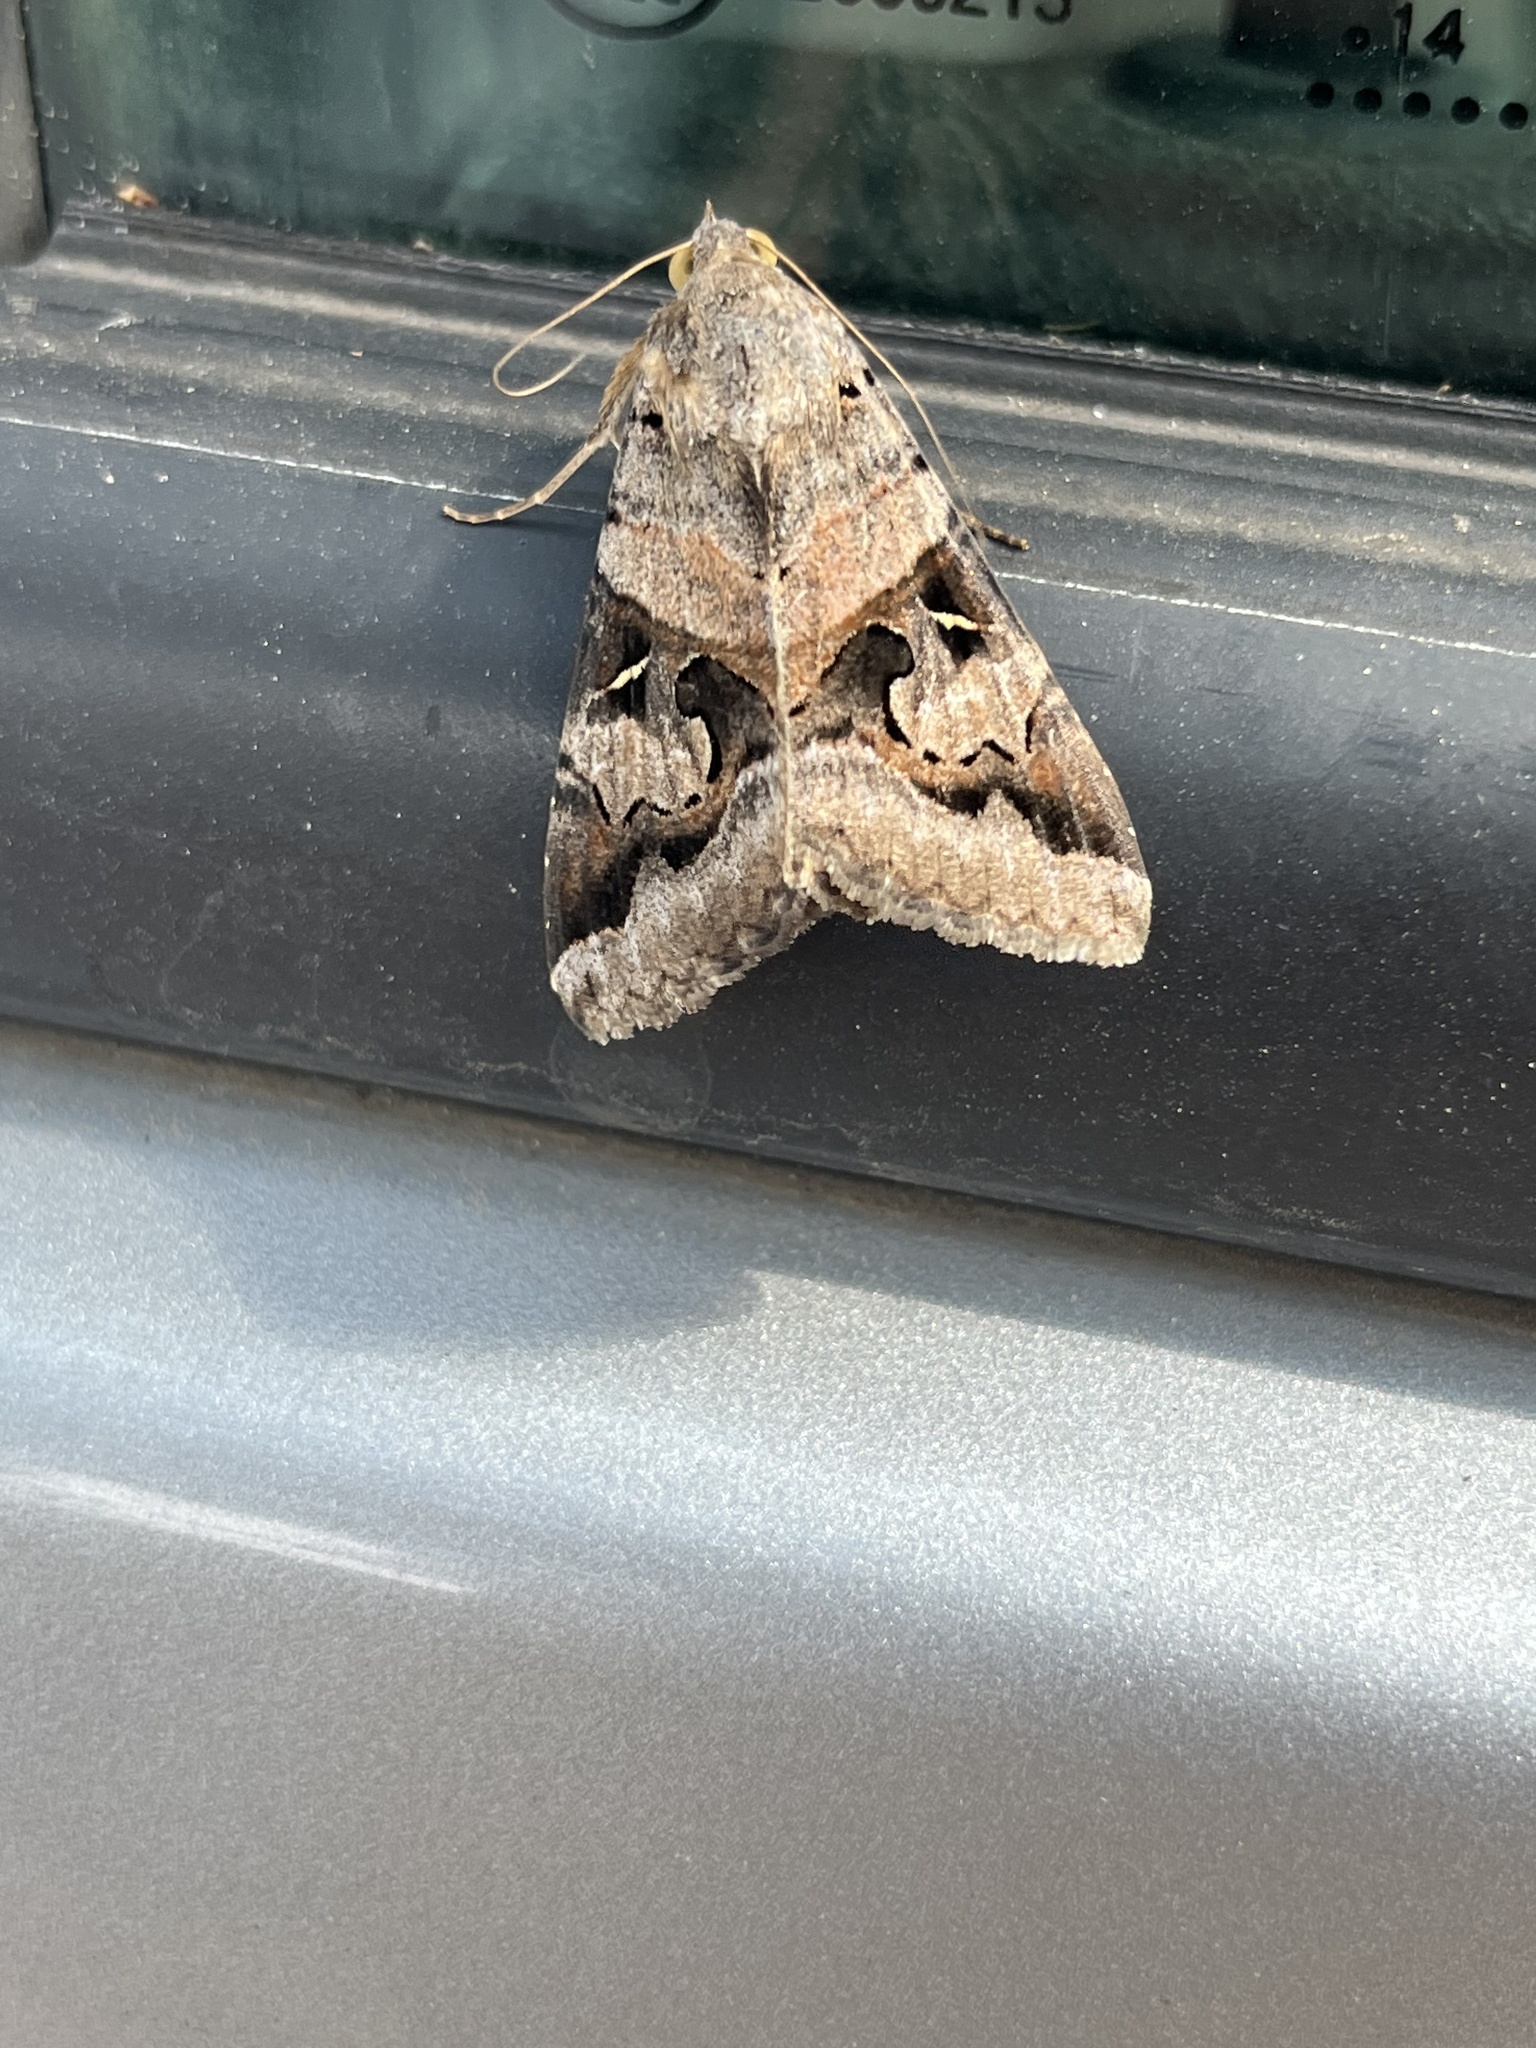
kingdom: Animalia
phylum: Arthropoda
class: Insecta
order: Lepidoptera
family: Erebidae
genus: Melipotis
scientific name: Melipotis indomita
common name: Moth
